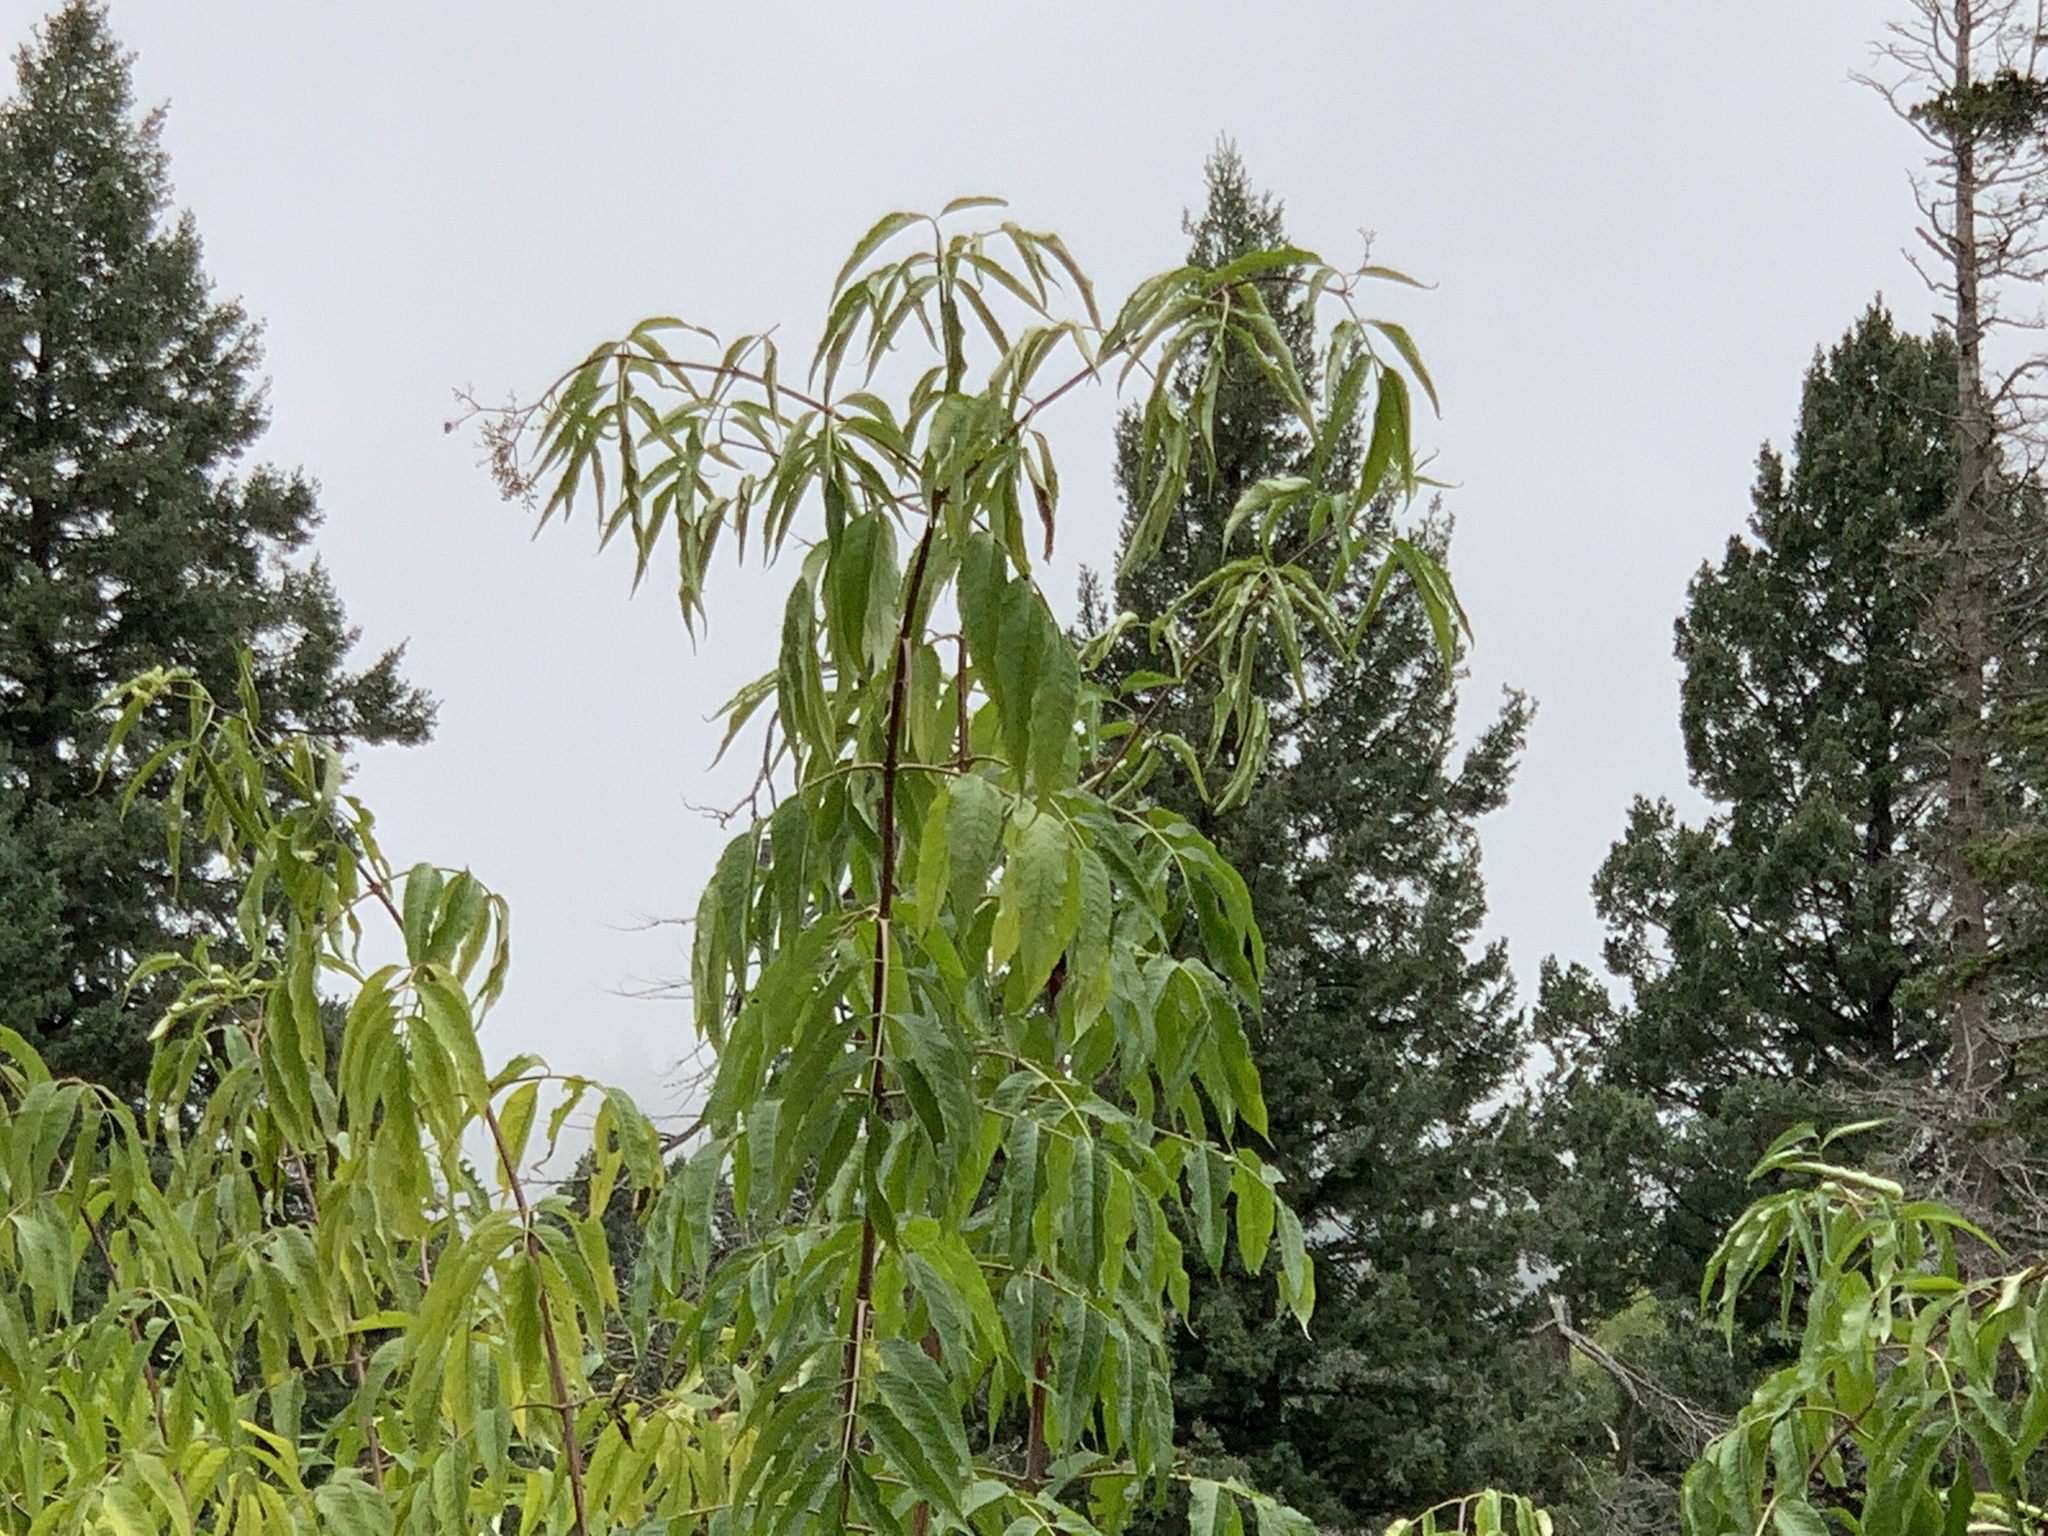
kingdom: Plantae
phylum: Tracheophyta
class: Magnoliopsida
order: Dipsacales
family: Viburnaceae
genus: Sambucus
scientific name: Sambucus cerulea
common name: Blue elder
